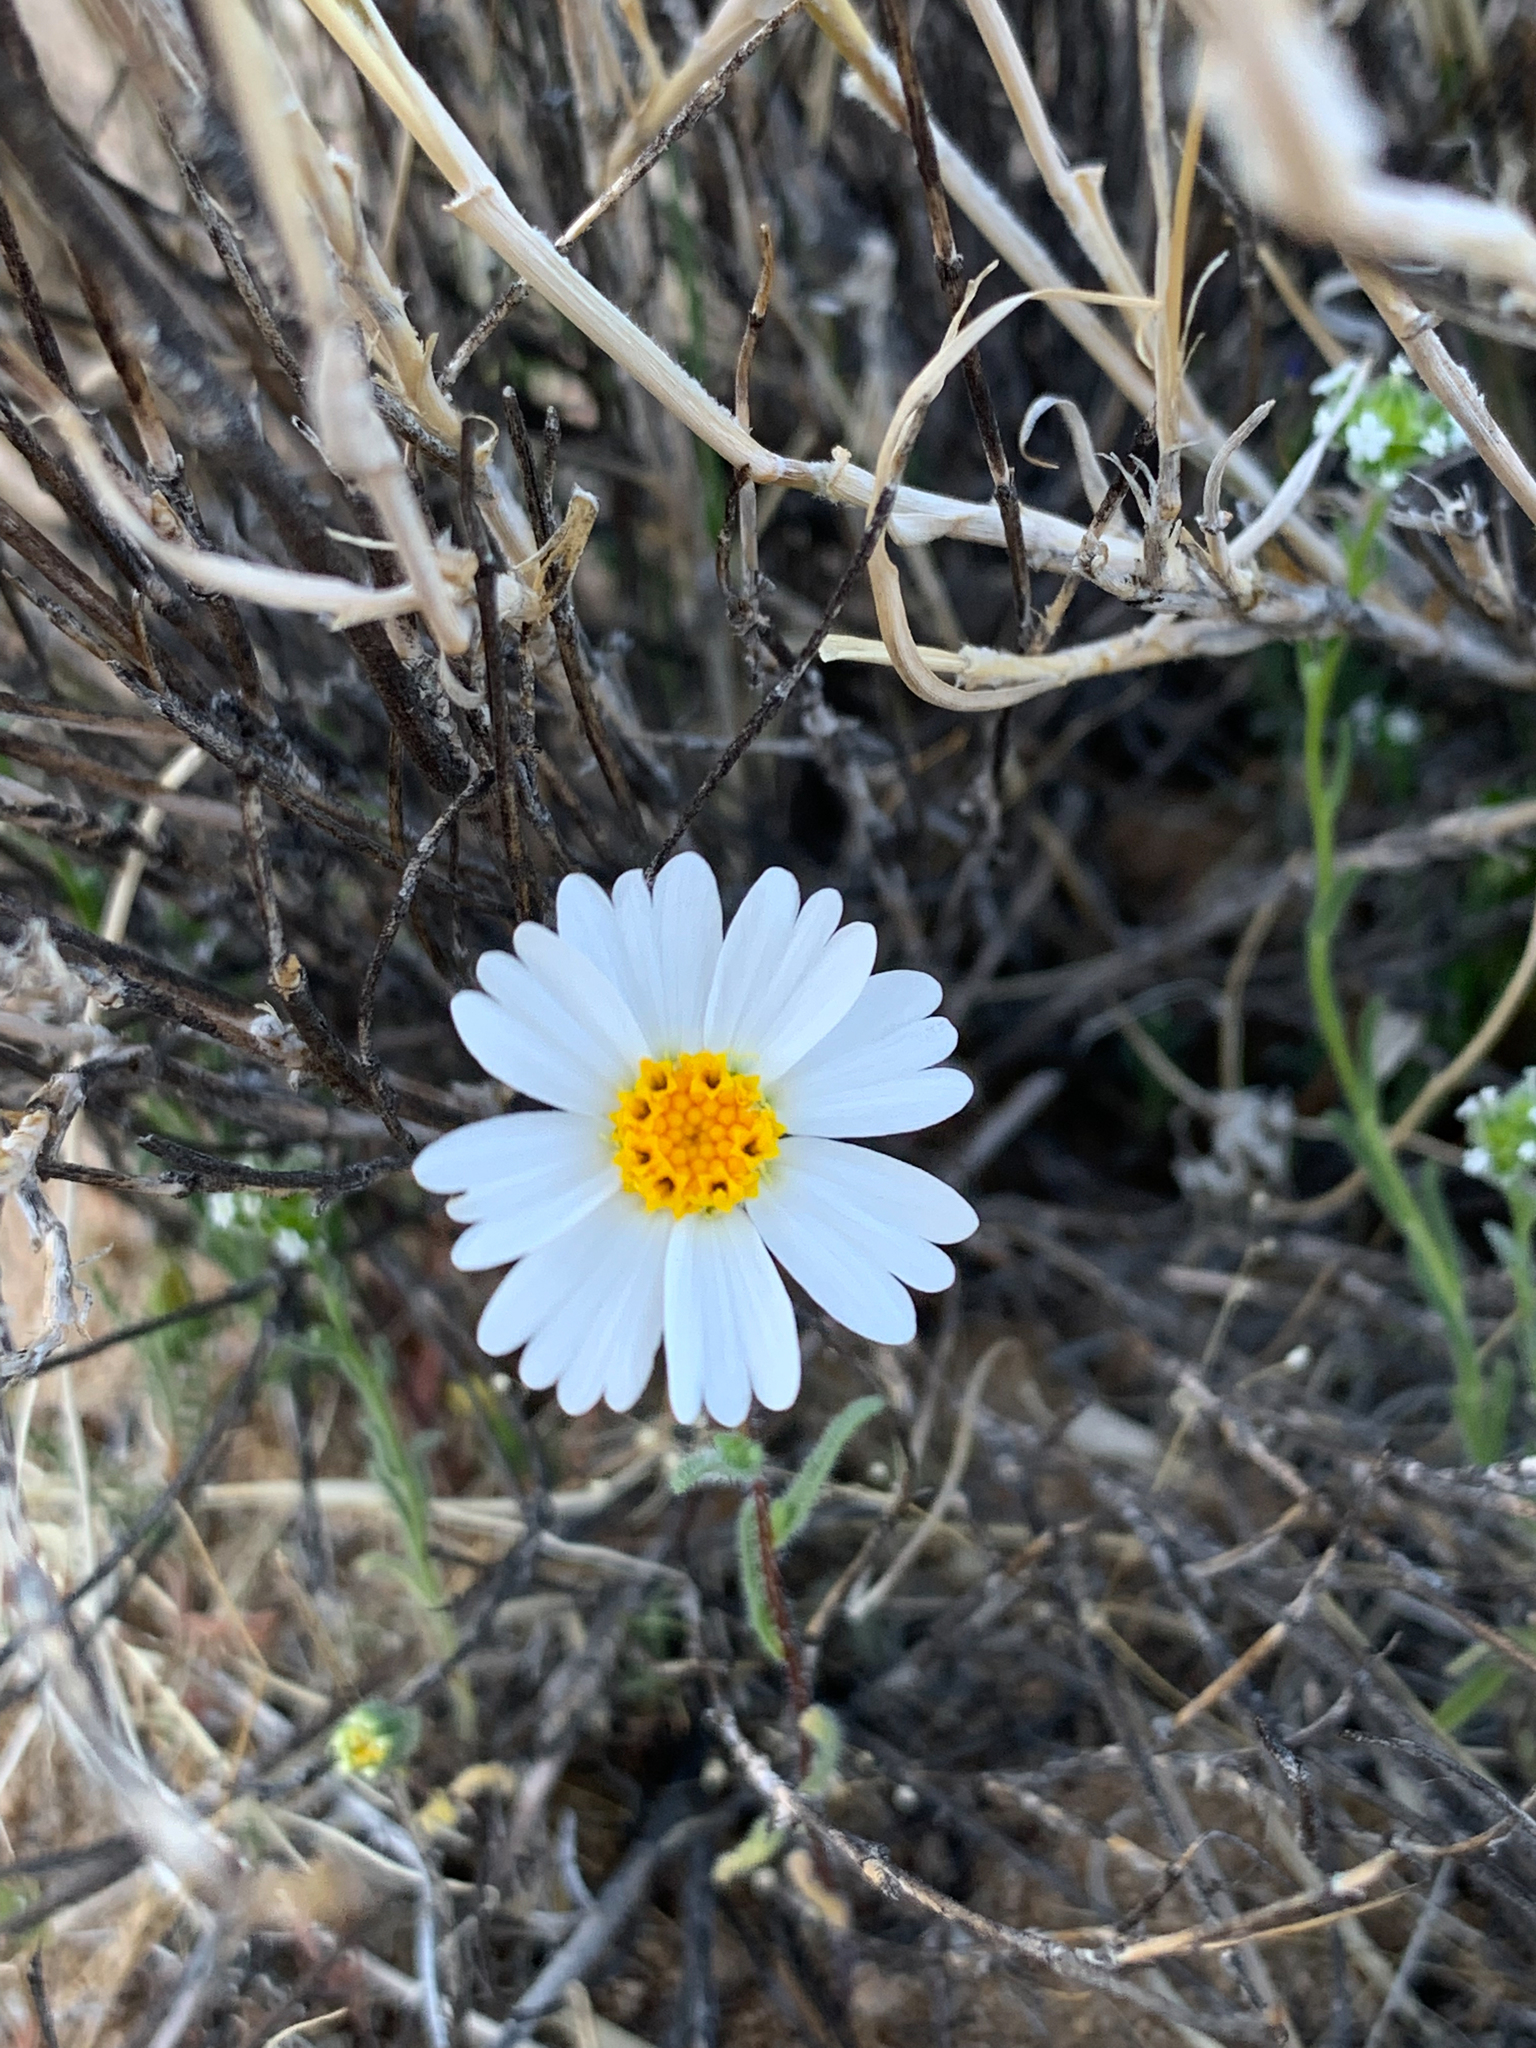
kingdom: Plantae
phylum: Tracheophyta
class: Magnoliopsida
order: Asterales
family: Asteraceae
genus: Layia
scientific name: Layia glandulosa
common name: White layia
